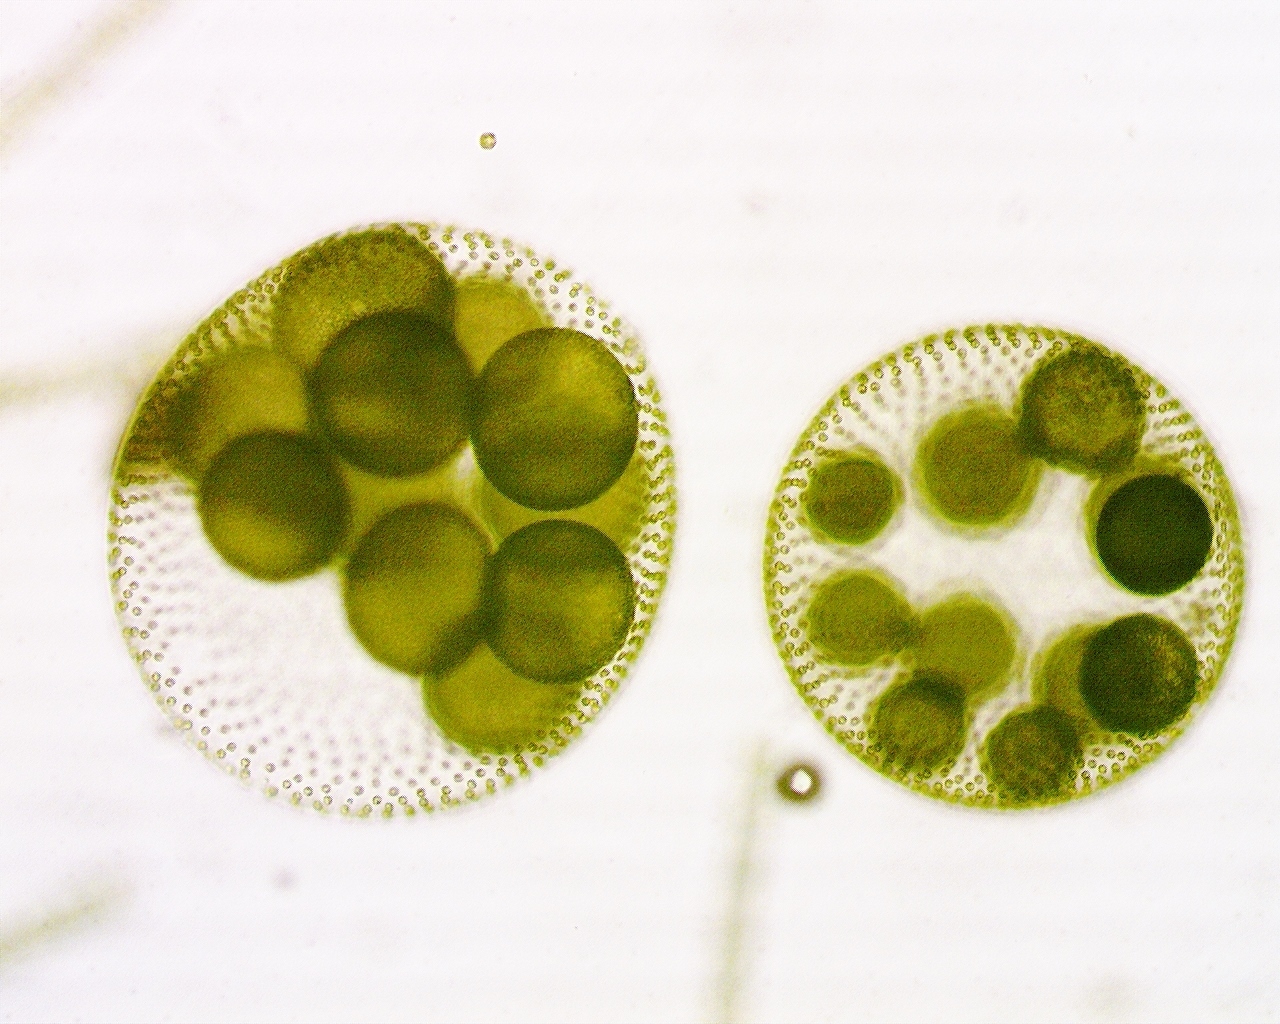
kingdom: Plantae
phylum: Chlorophyta
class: Chlorophyceae
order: Volvocales
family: Volvocaceae
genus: Volvox
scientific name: Volvox aureus
